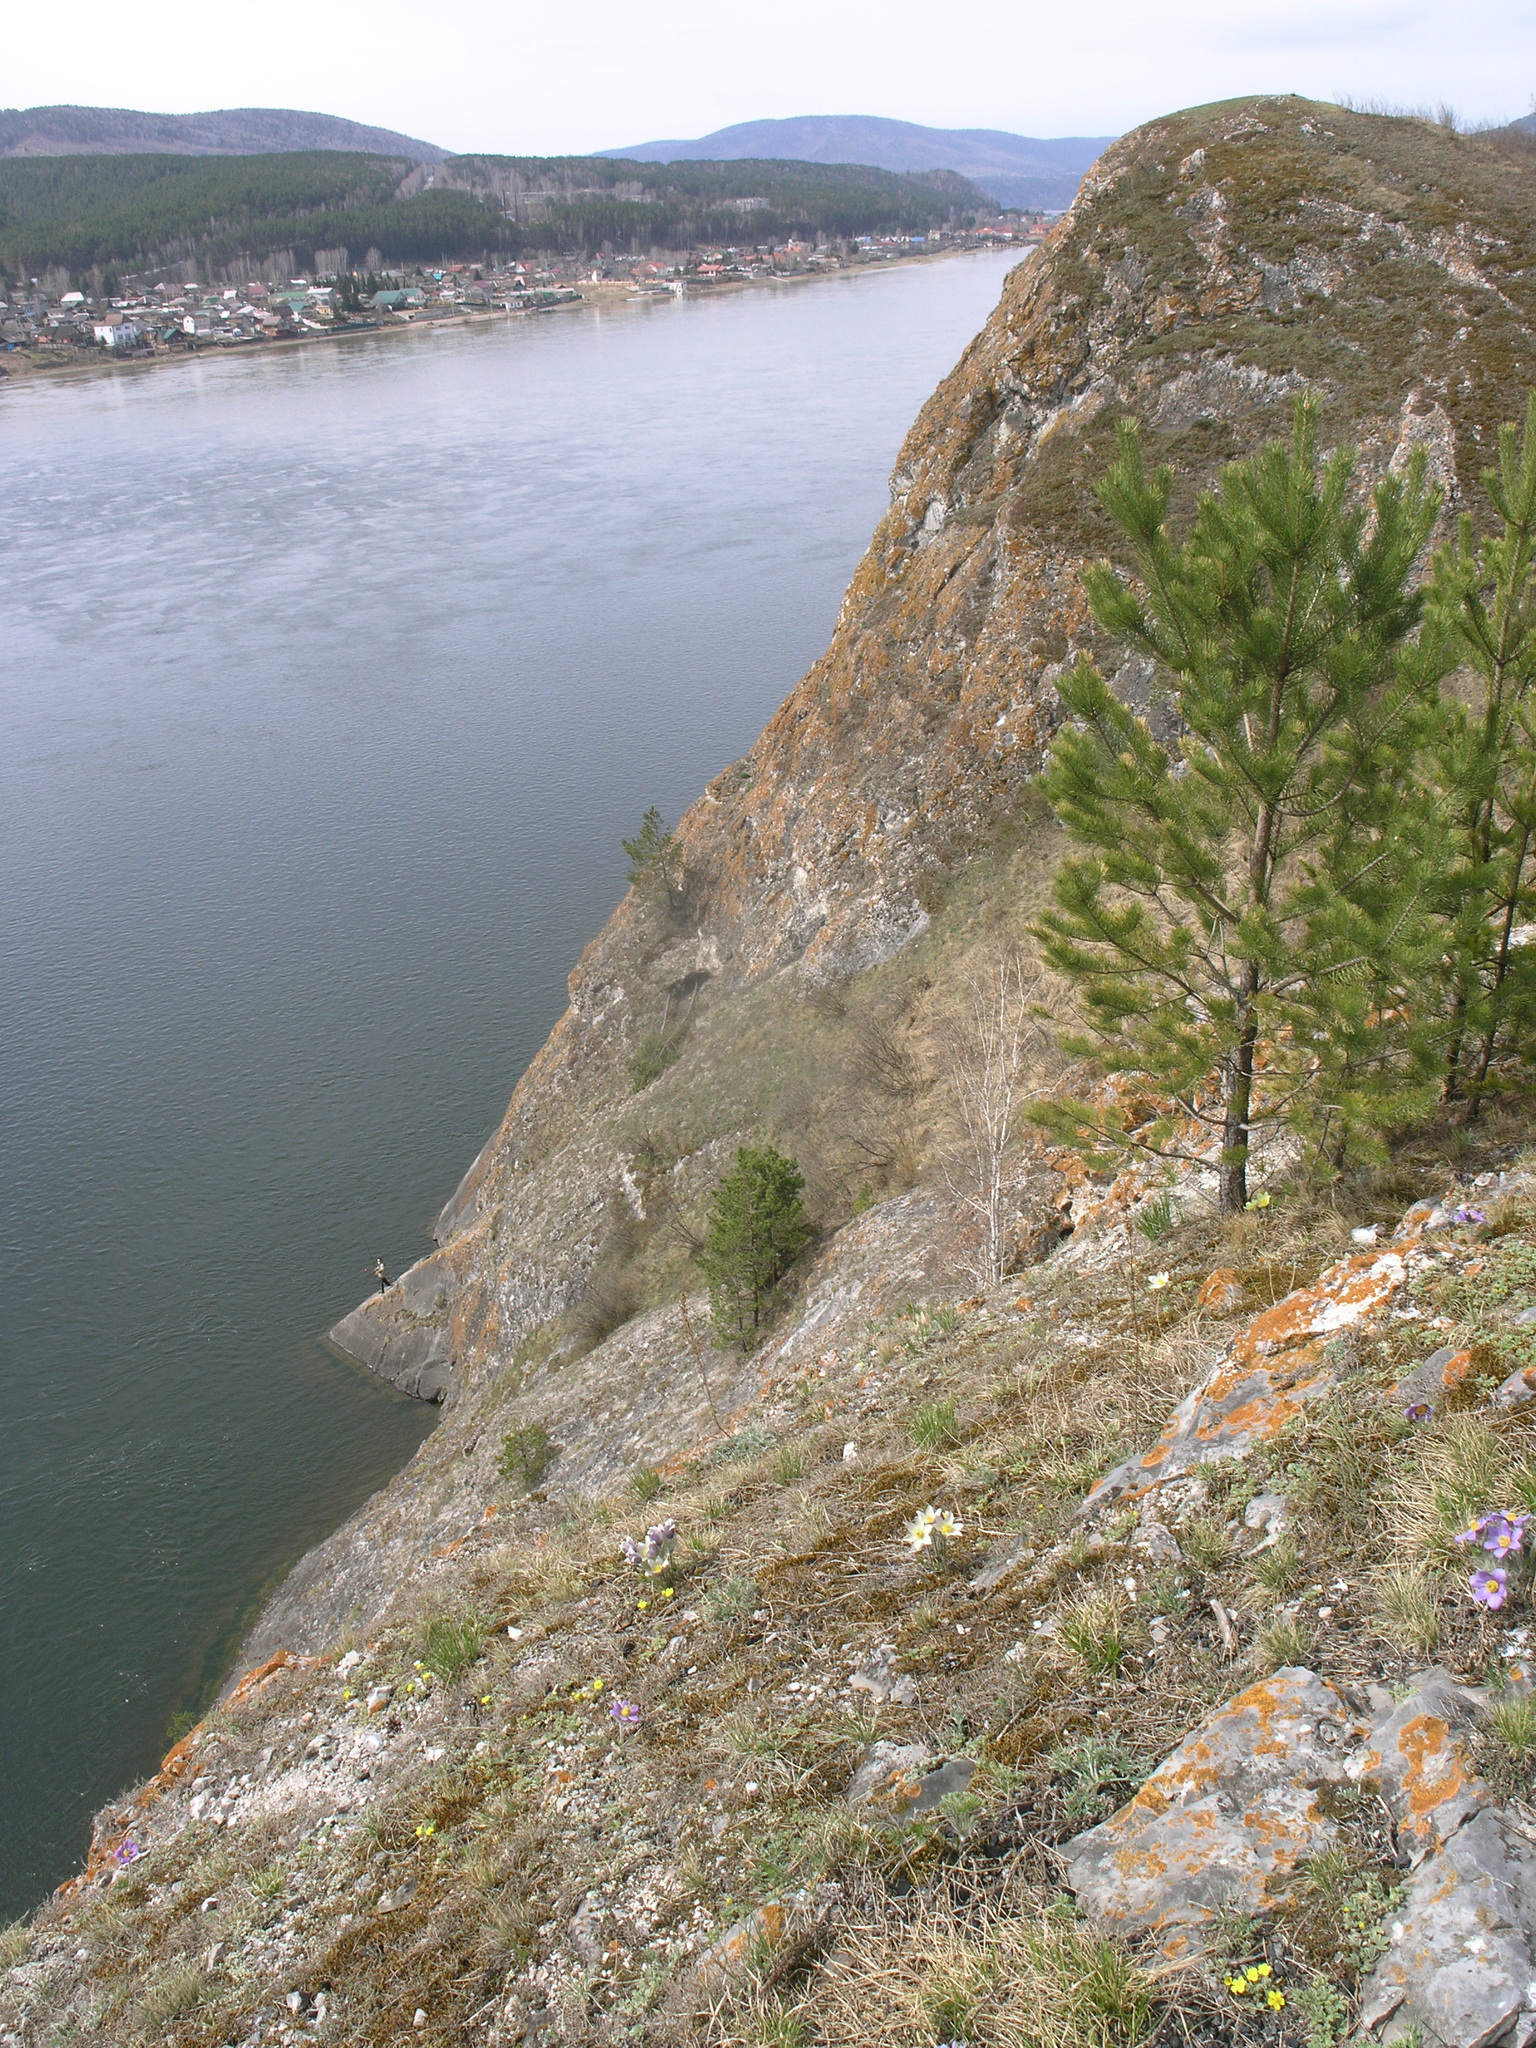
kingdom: Plantae
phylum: Tracheophyta
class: Pinopsida
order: Pinales
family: Pinaceae
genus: Pinus
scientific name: Pinus sylvestris
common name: Scots pine
